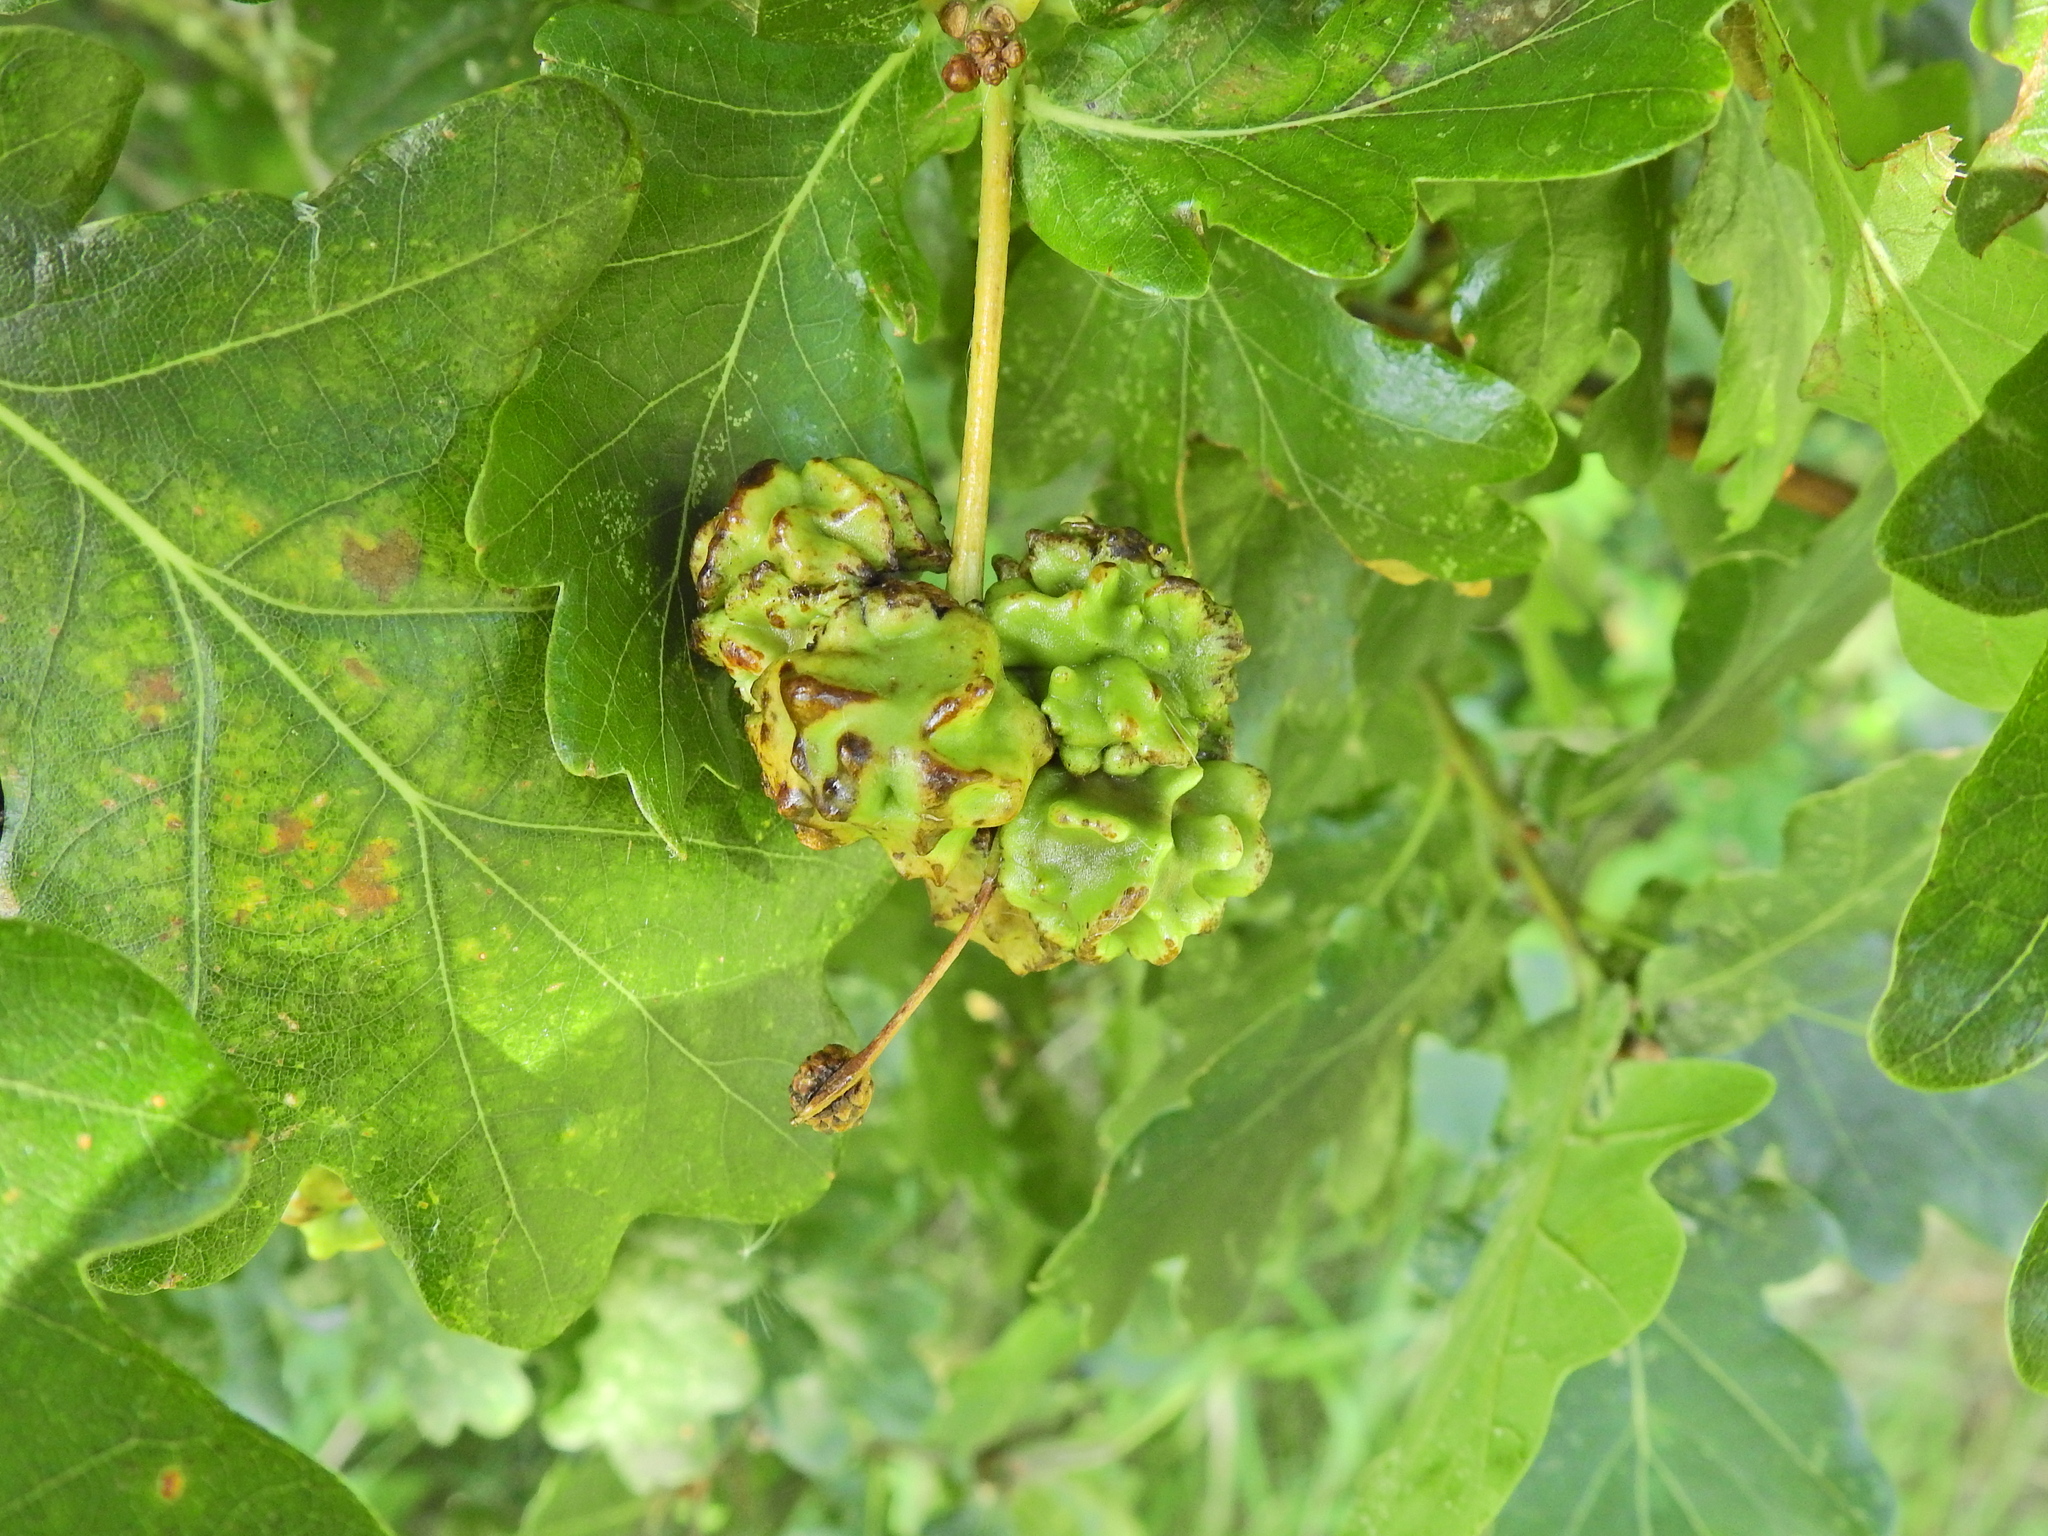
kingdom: Animalia
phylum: Arthropoda
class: Insecta
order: Hymenoptera
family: Cynipidae
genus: Andricus
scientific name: Andricus quercuscalicis
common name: Knopper gall
